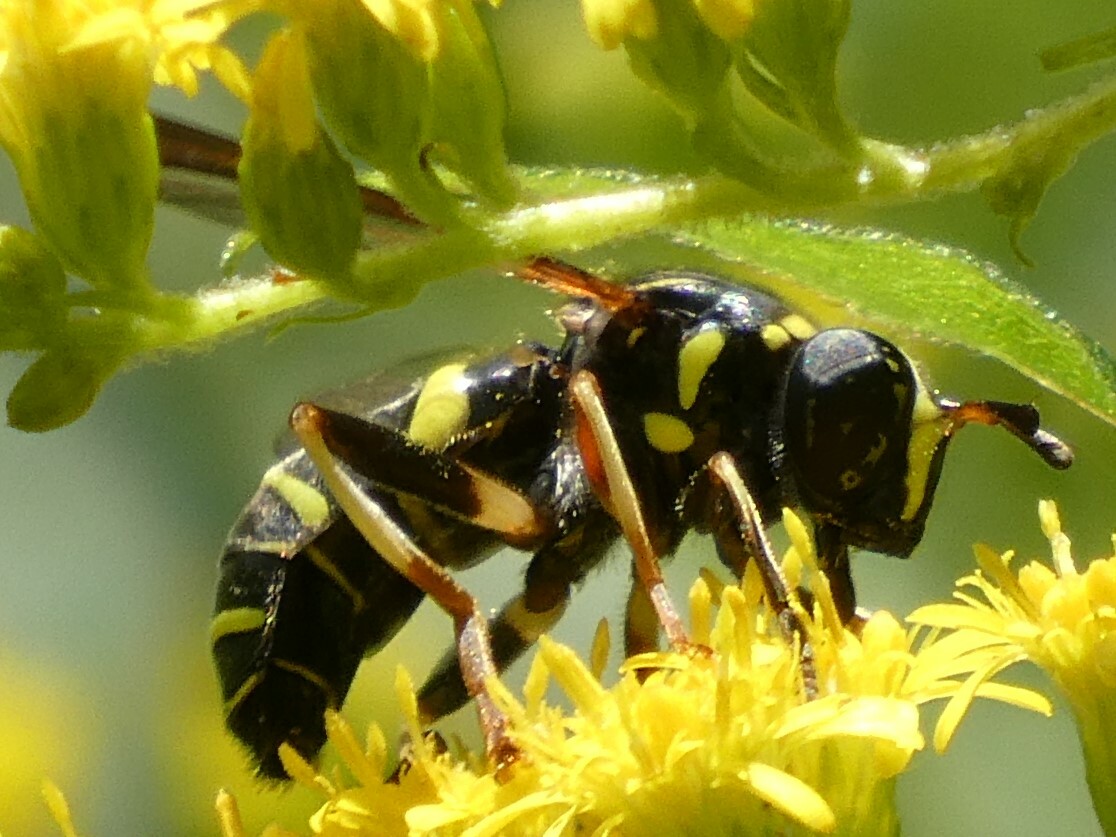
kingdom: Animalia
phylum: Arthropoda
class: Insecta
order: Diptera
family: Syrphidae
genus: Spilomyia
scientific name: Spilomyia sayi
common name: Four-lined hornet fly
